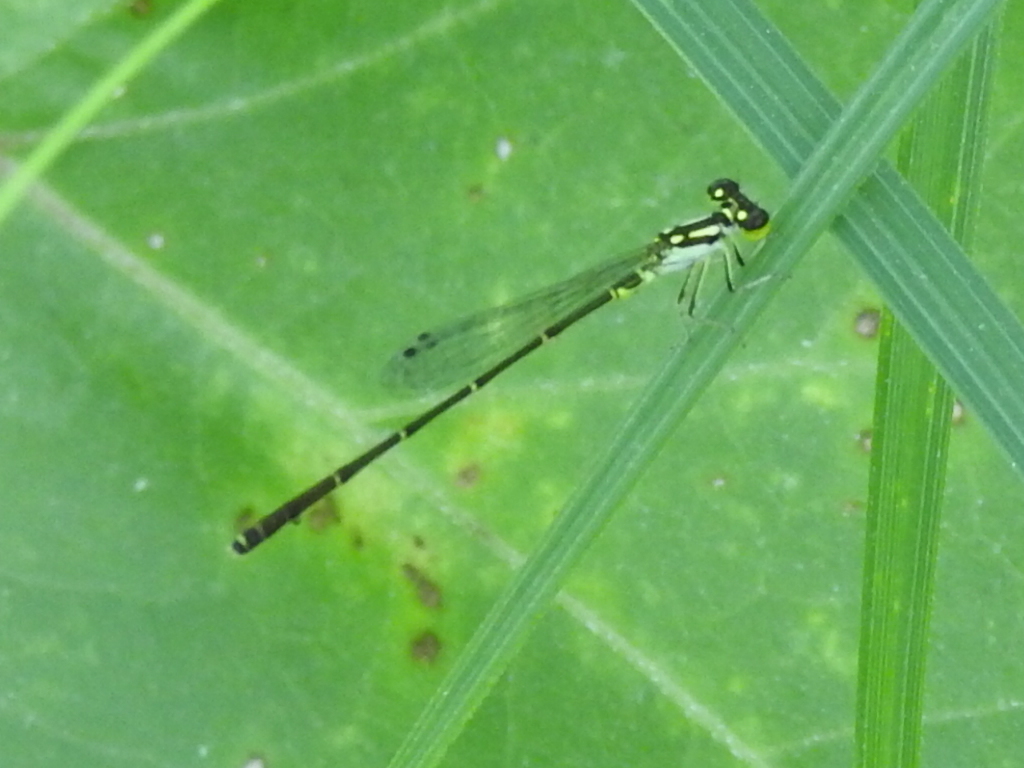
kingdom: Animalia
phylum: Arthropoda
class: Insecta
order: Odonata
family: Coenagrionidae
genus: Ischnura
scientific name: Ischnura posita
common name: Fragile forktail
